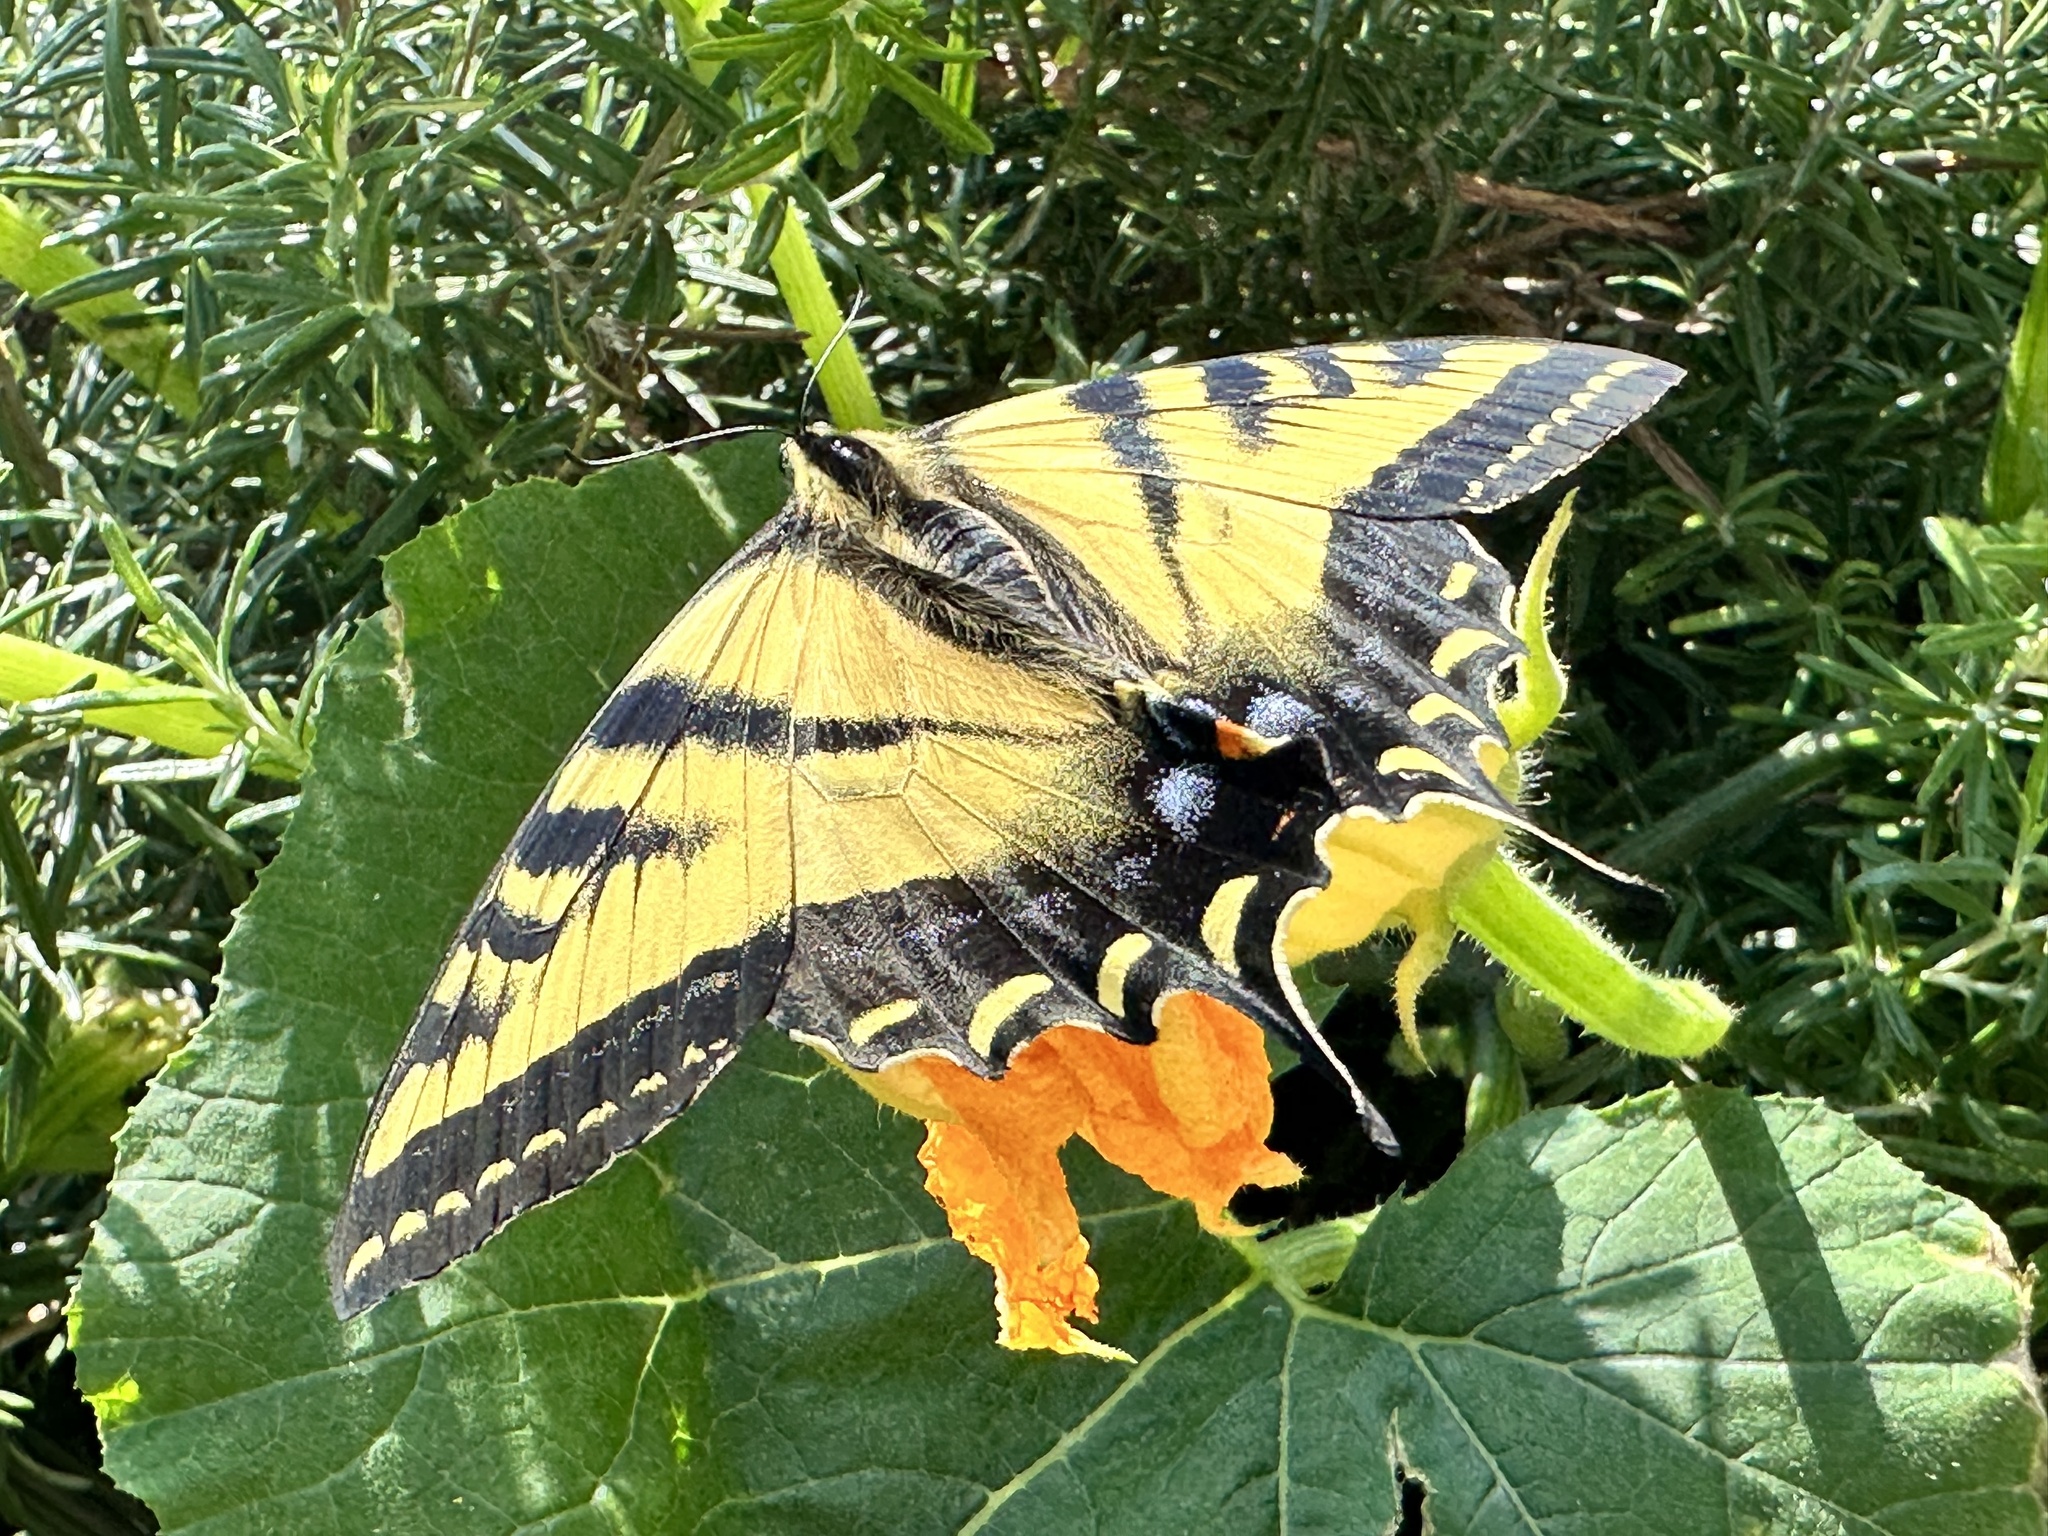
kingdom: Animalia
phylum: Arthropoda
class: Insecta
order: Lepidoptera
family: Papilionidae
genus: Papilio
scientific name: Papilio rutulus
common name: Western tiger swallowtail
